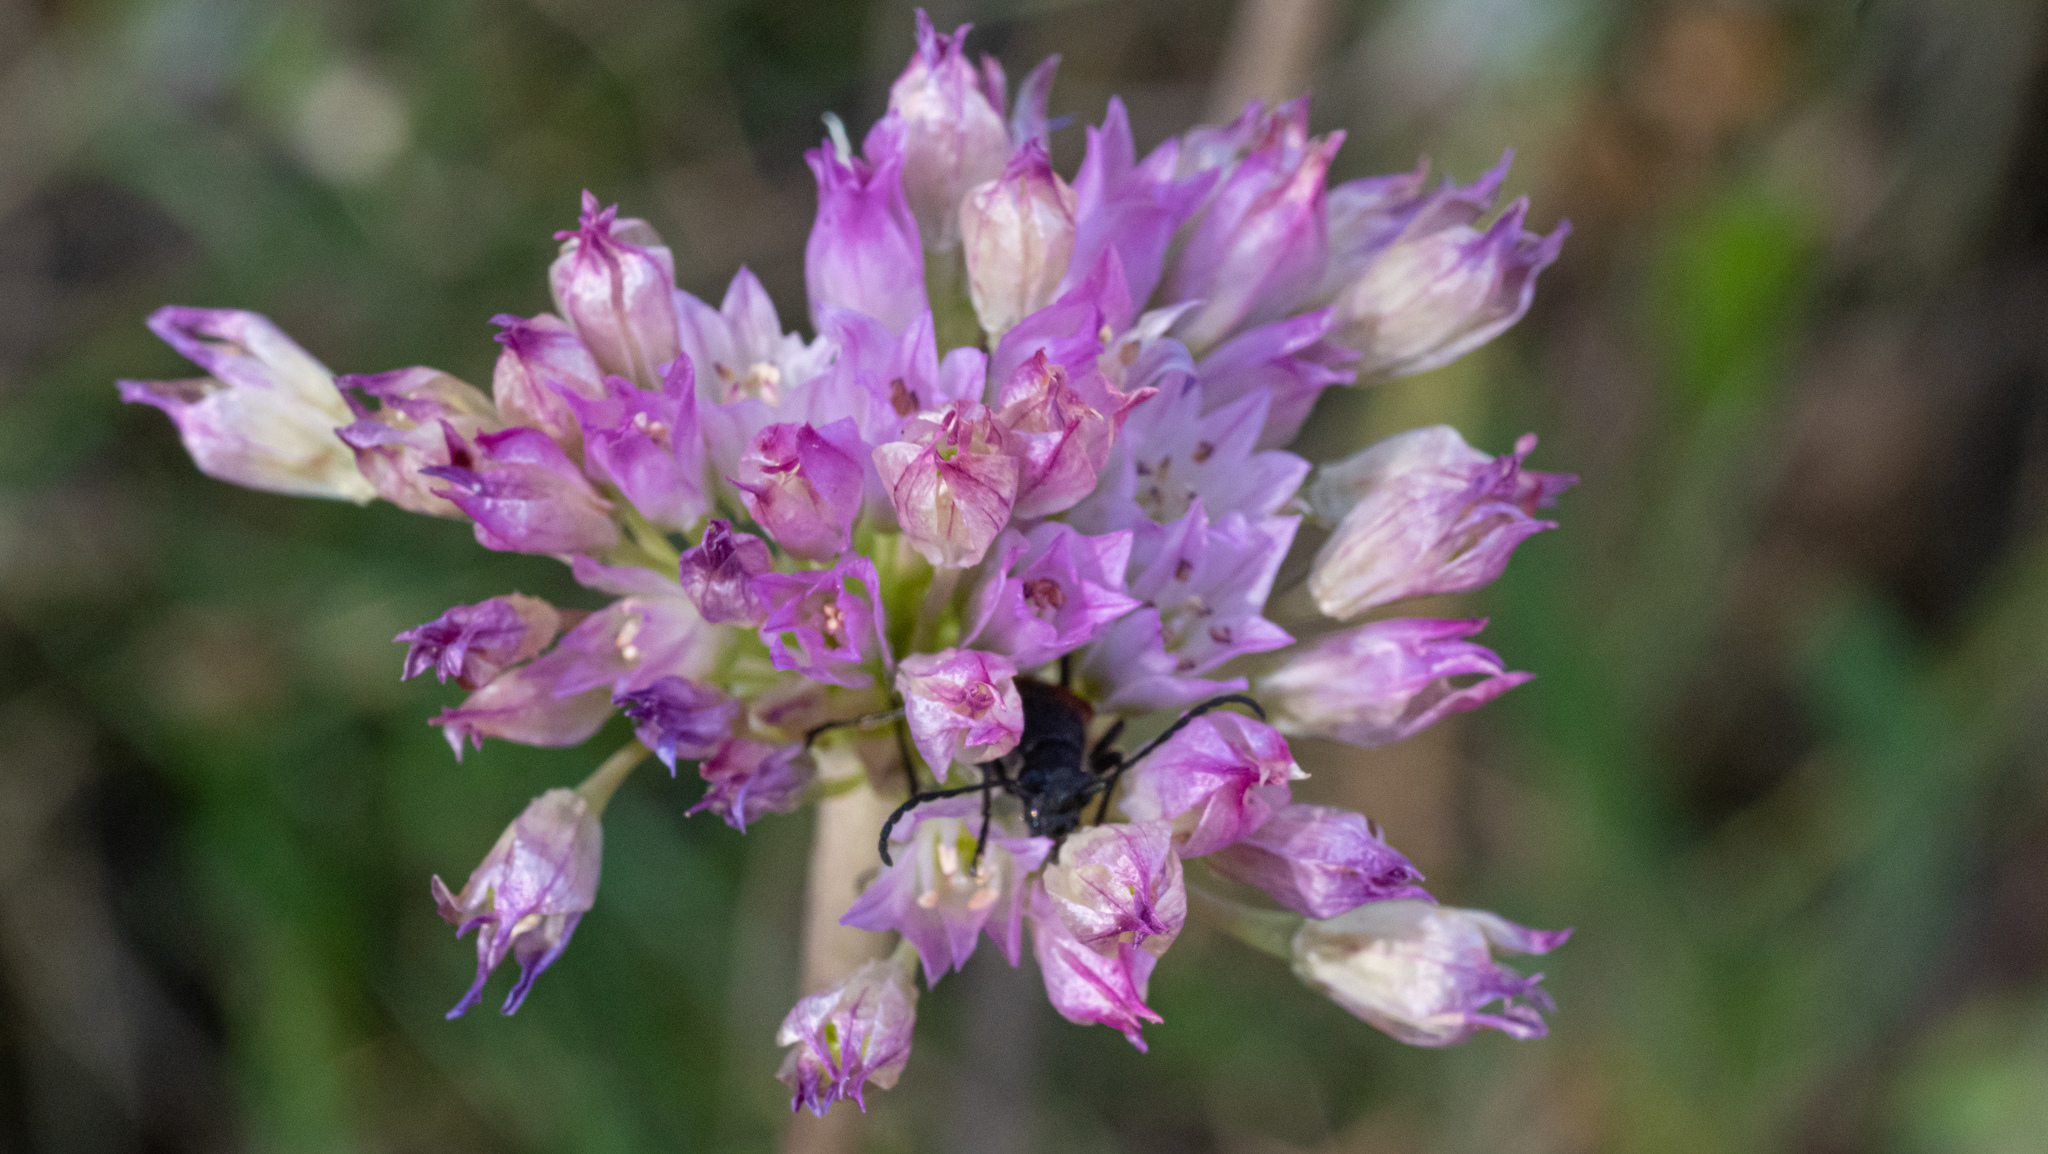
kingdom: Plantae
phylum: Tracheophyta
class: Liliopsida
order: Asparagales
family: Amaryllidaceae
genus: Allium
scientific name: Allium serra
